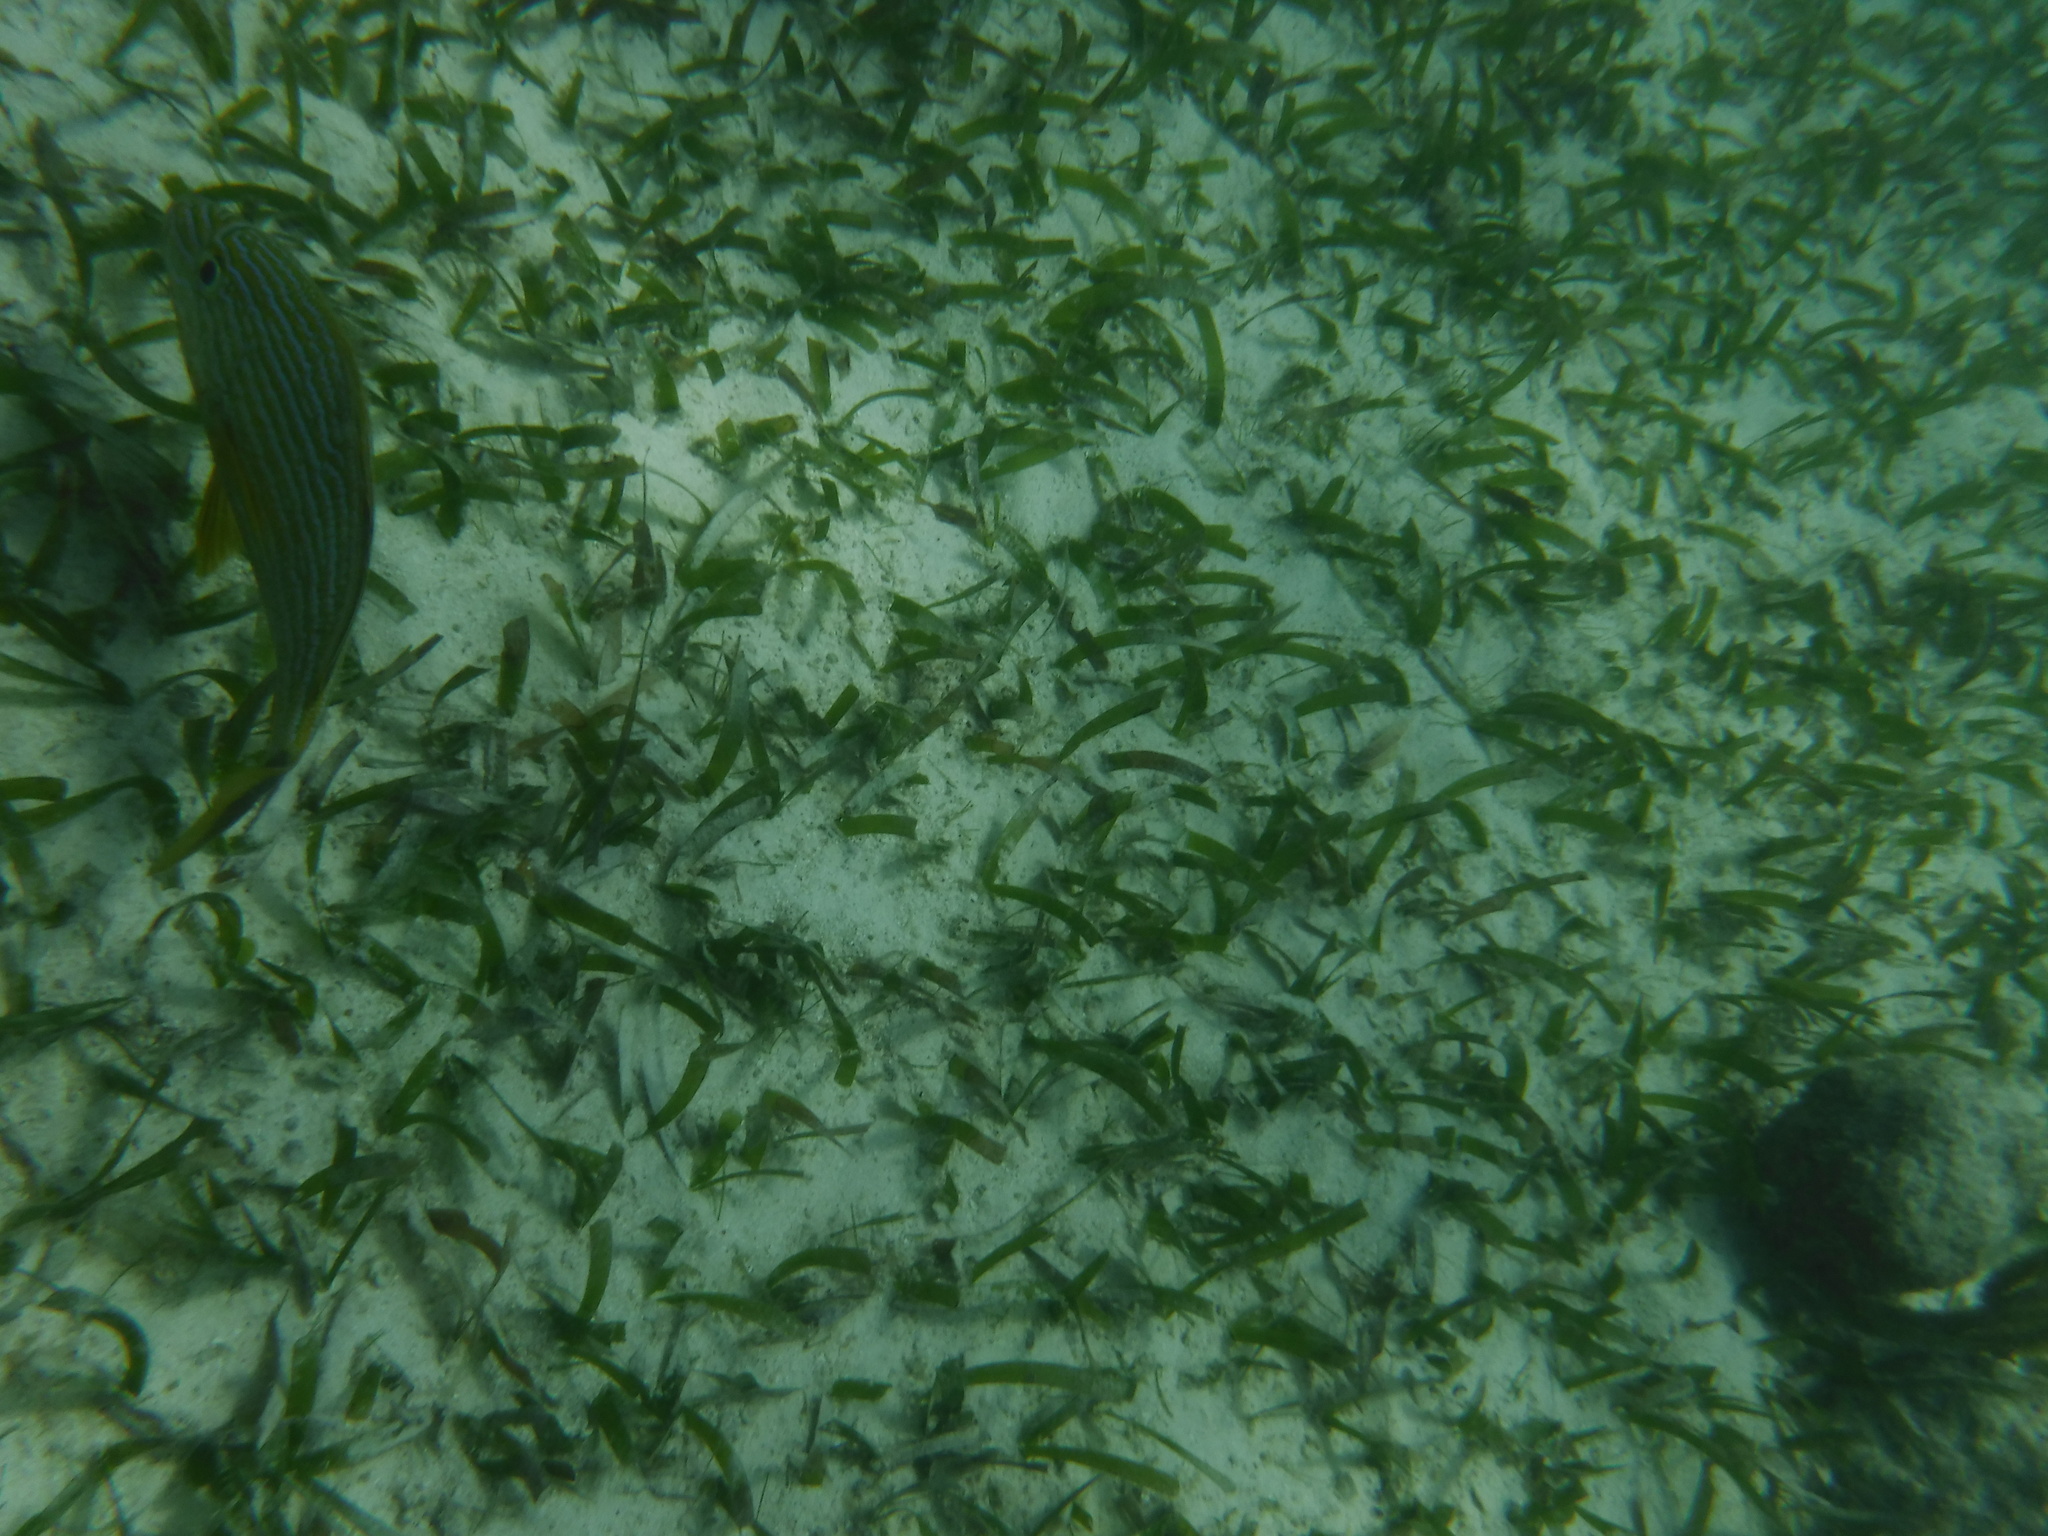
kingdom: Animalia
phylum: Chordata
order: Perciformes
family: Haemulidae
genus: Haemulon
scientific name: Haemulon sciurus
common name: Bluestriped grunt
